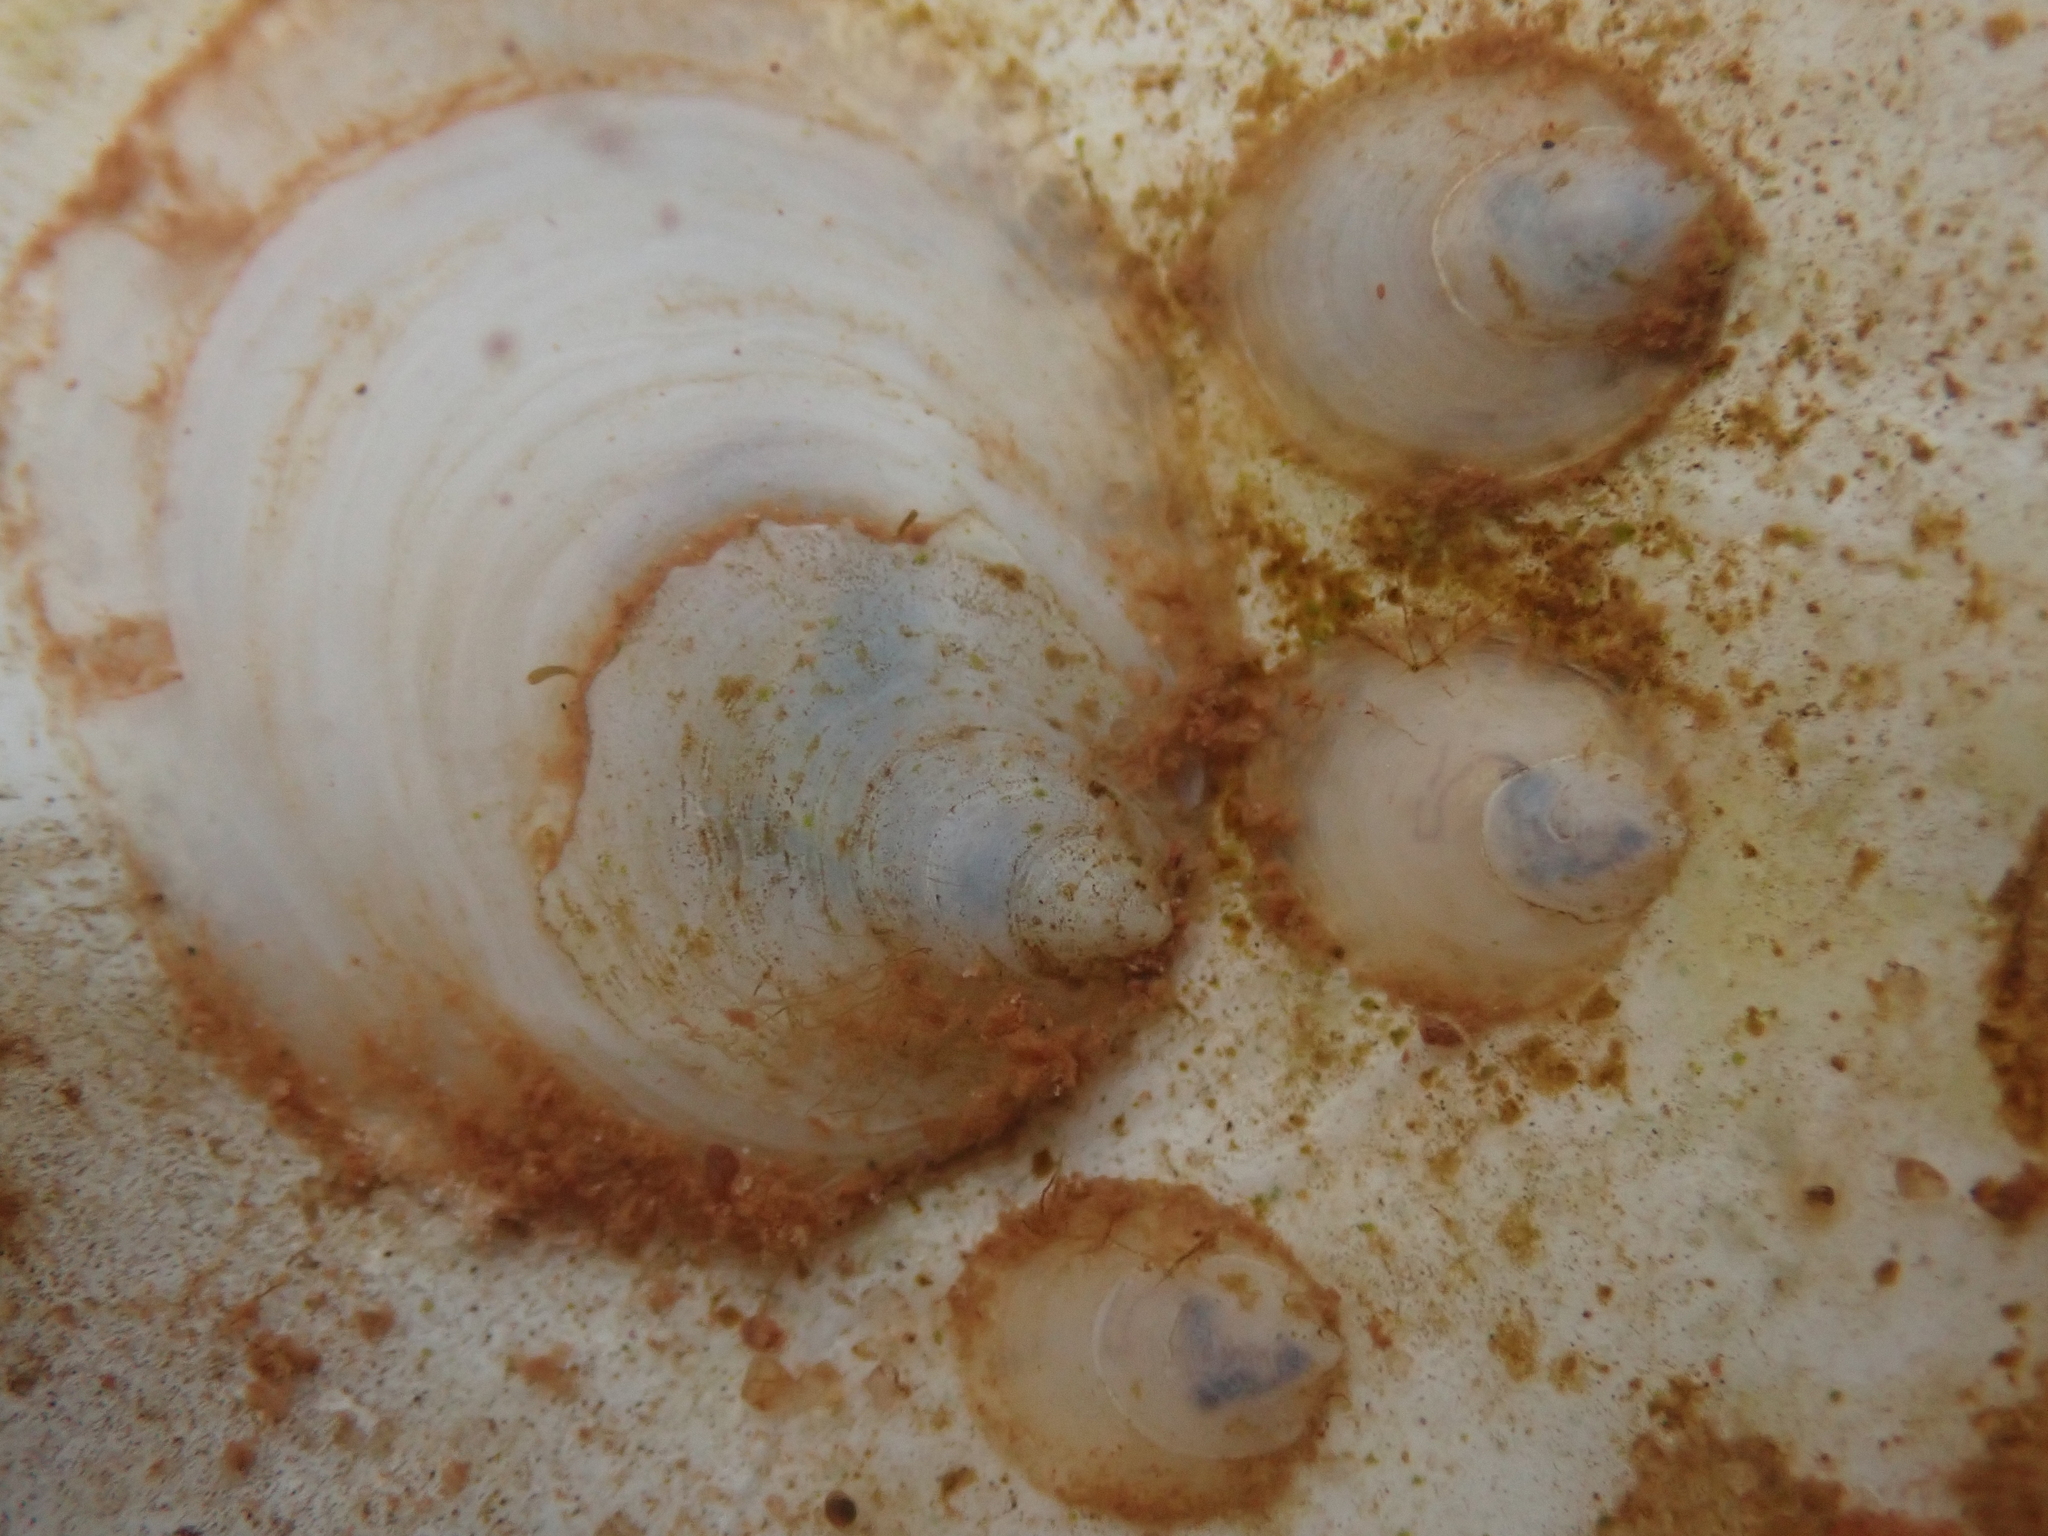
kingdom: Animalia
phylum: Mollusca
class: Gastropoda
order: Littorinimorpha
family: Calyptraeidae
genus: Crepidula
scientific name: Crepidula plana
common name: Eastern white slippersnail
